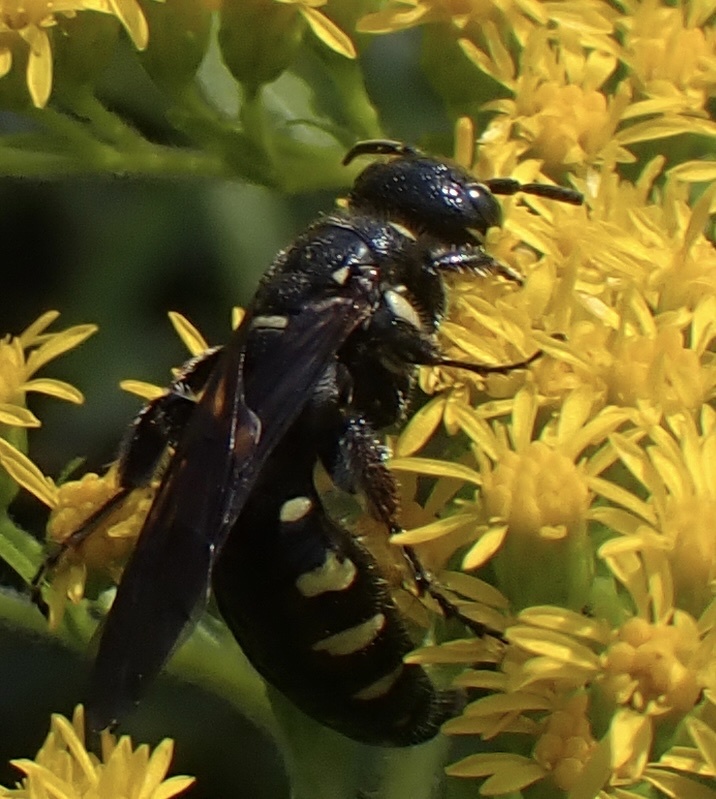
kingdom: Animalia
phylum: Arthropoda
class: Insecta
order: Hymenoptera
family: Tiphiidae
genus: Myzinum
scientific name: Myzinum obscurum
